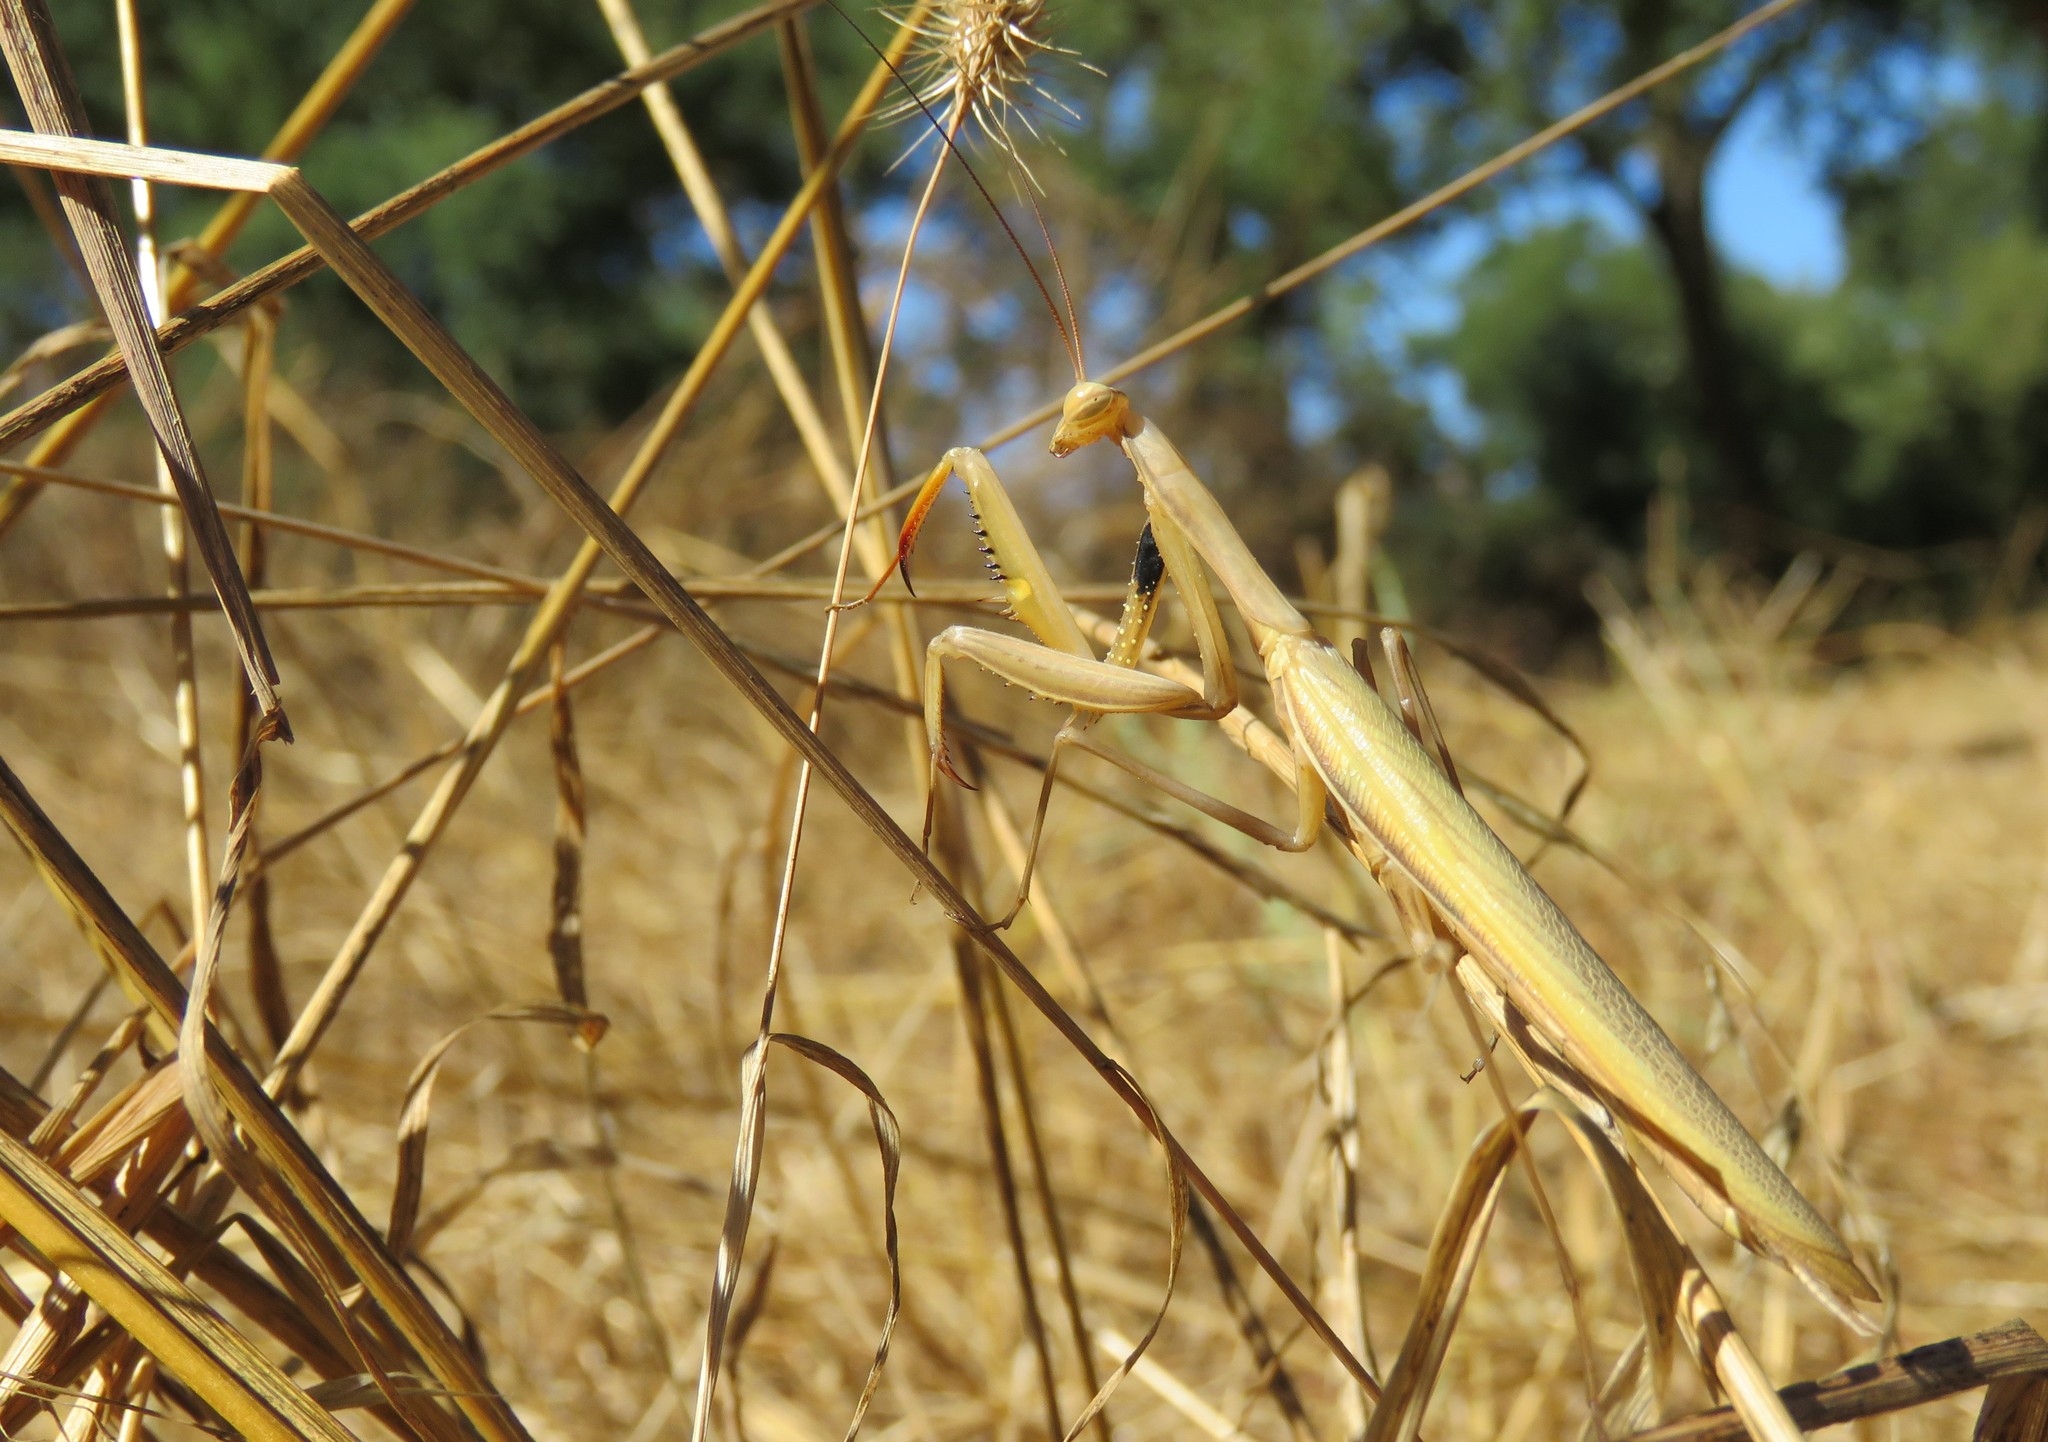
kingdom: Animalia
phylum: Arthropoda
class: Insecta
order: Mantodea
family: Mantidae
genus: Mantis
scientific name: Mantis religiosa
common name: Praying mantis
